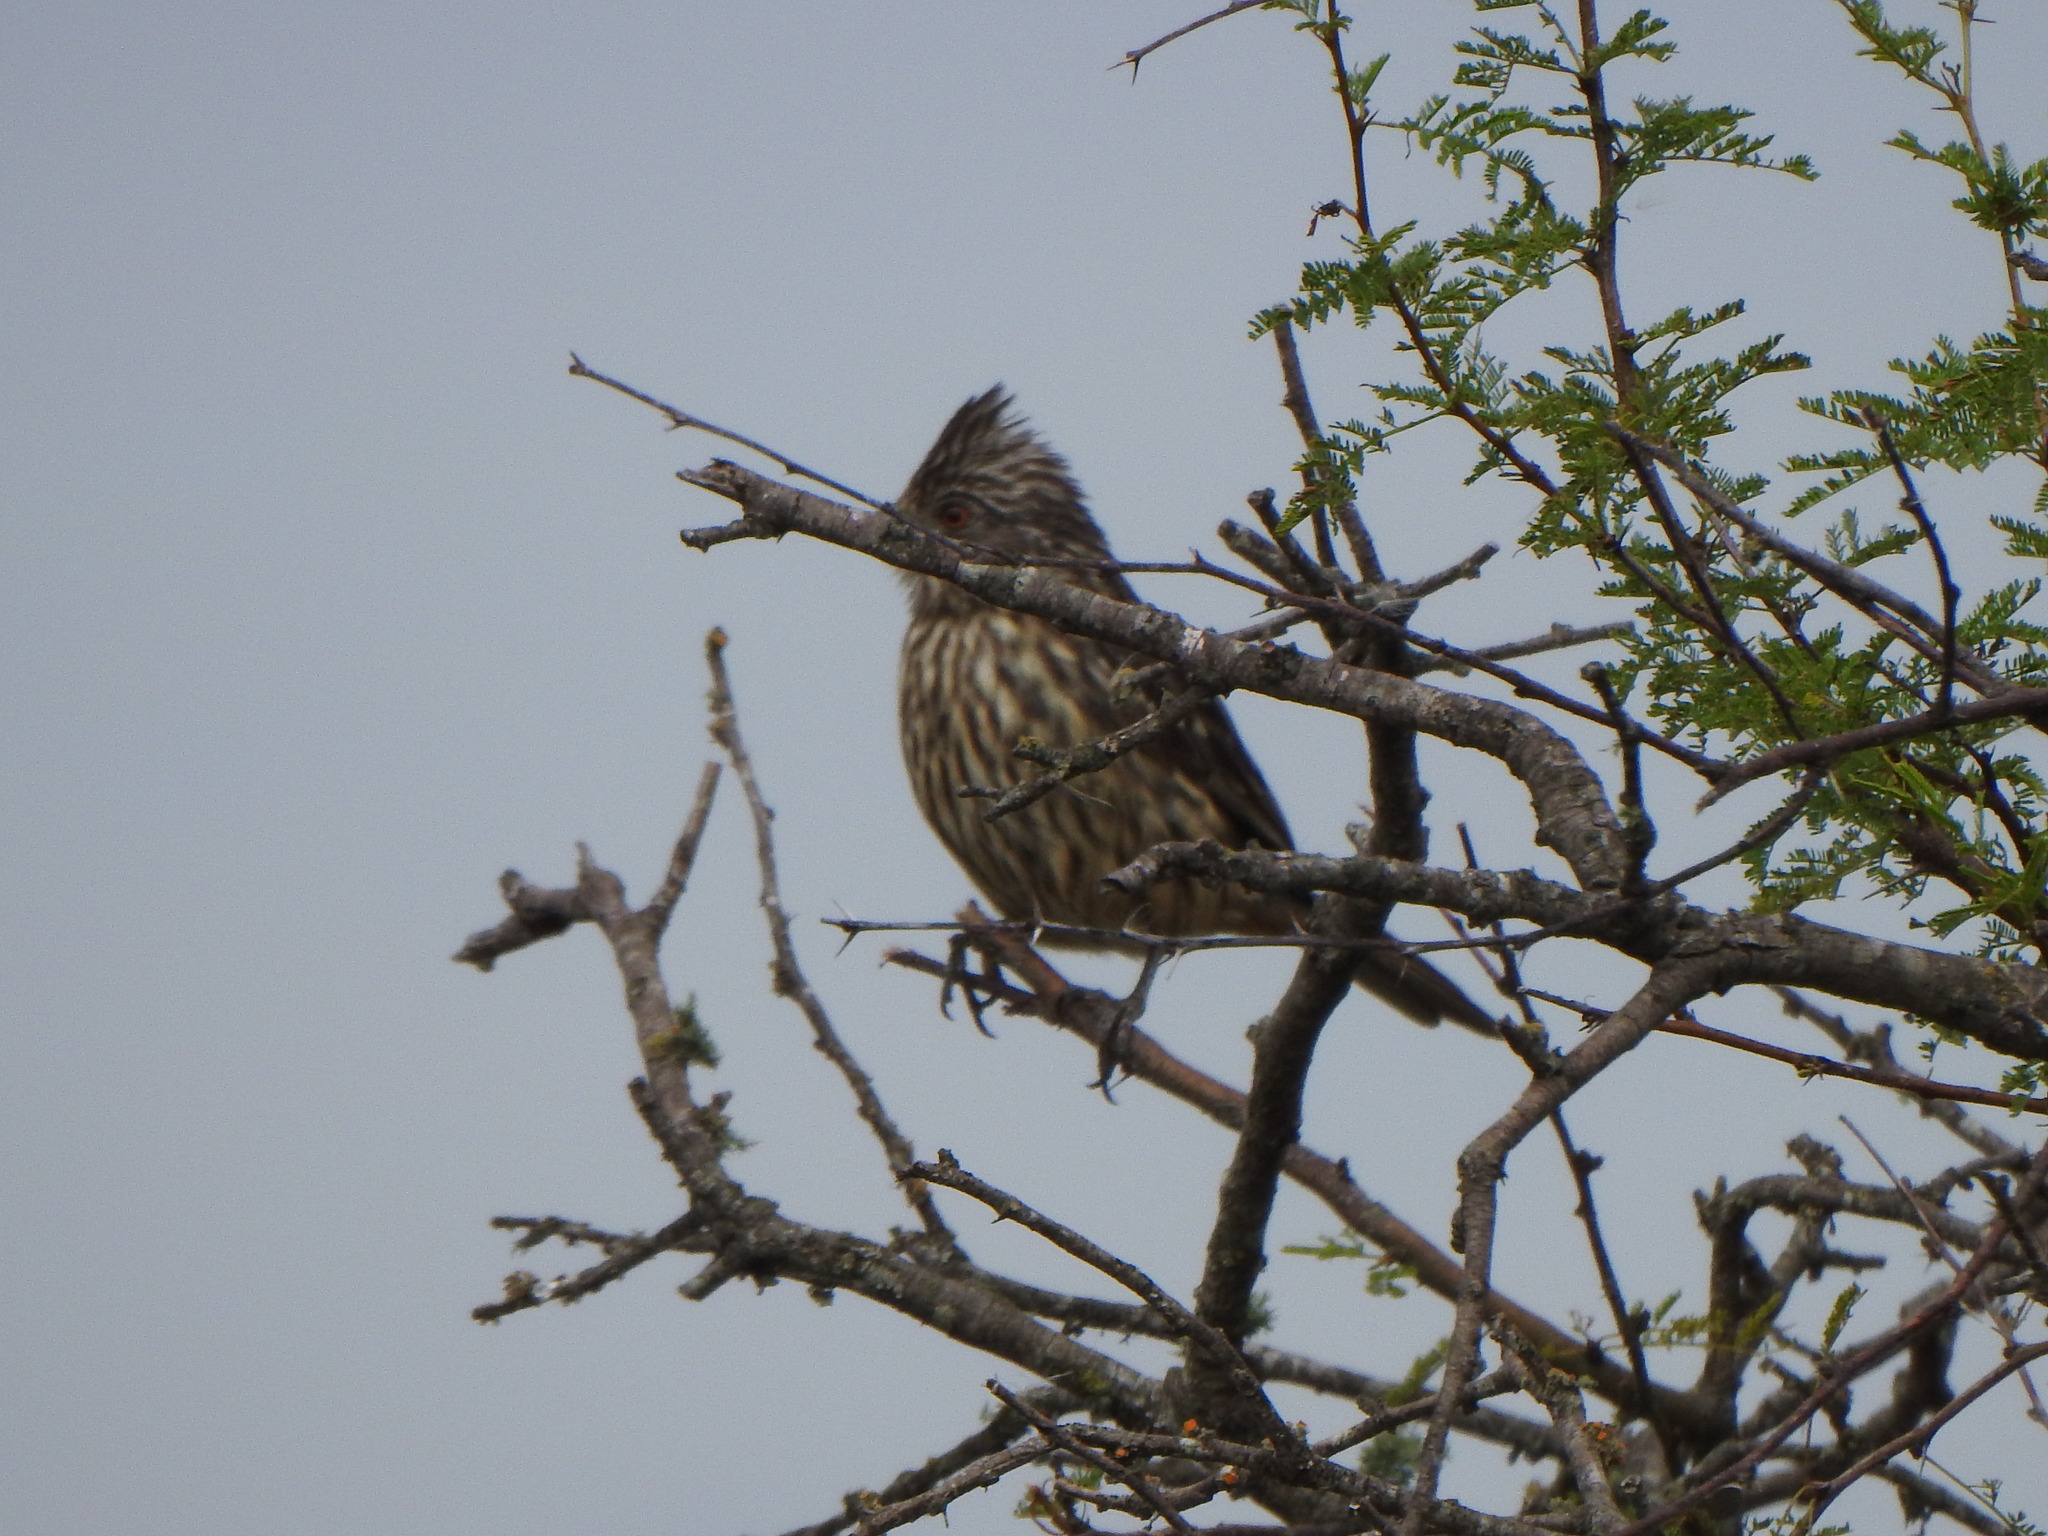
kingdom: Animalia
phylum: Chordata
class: Aves
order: Passeriformes
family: Cotingidae
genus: Phytotoma
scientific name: Phytotoma rutila
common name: White-tipped plantcutter
